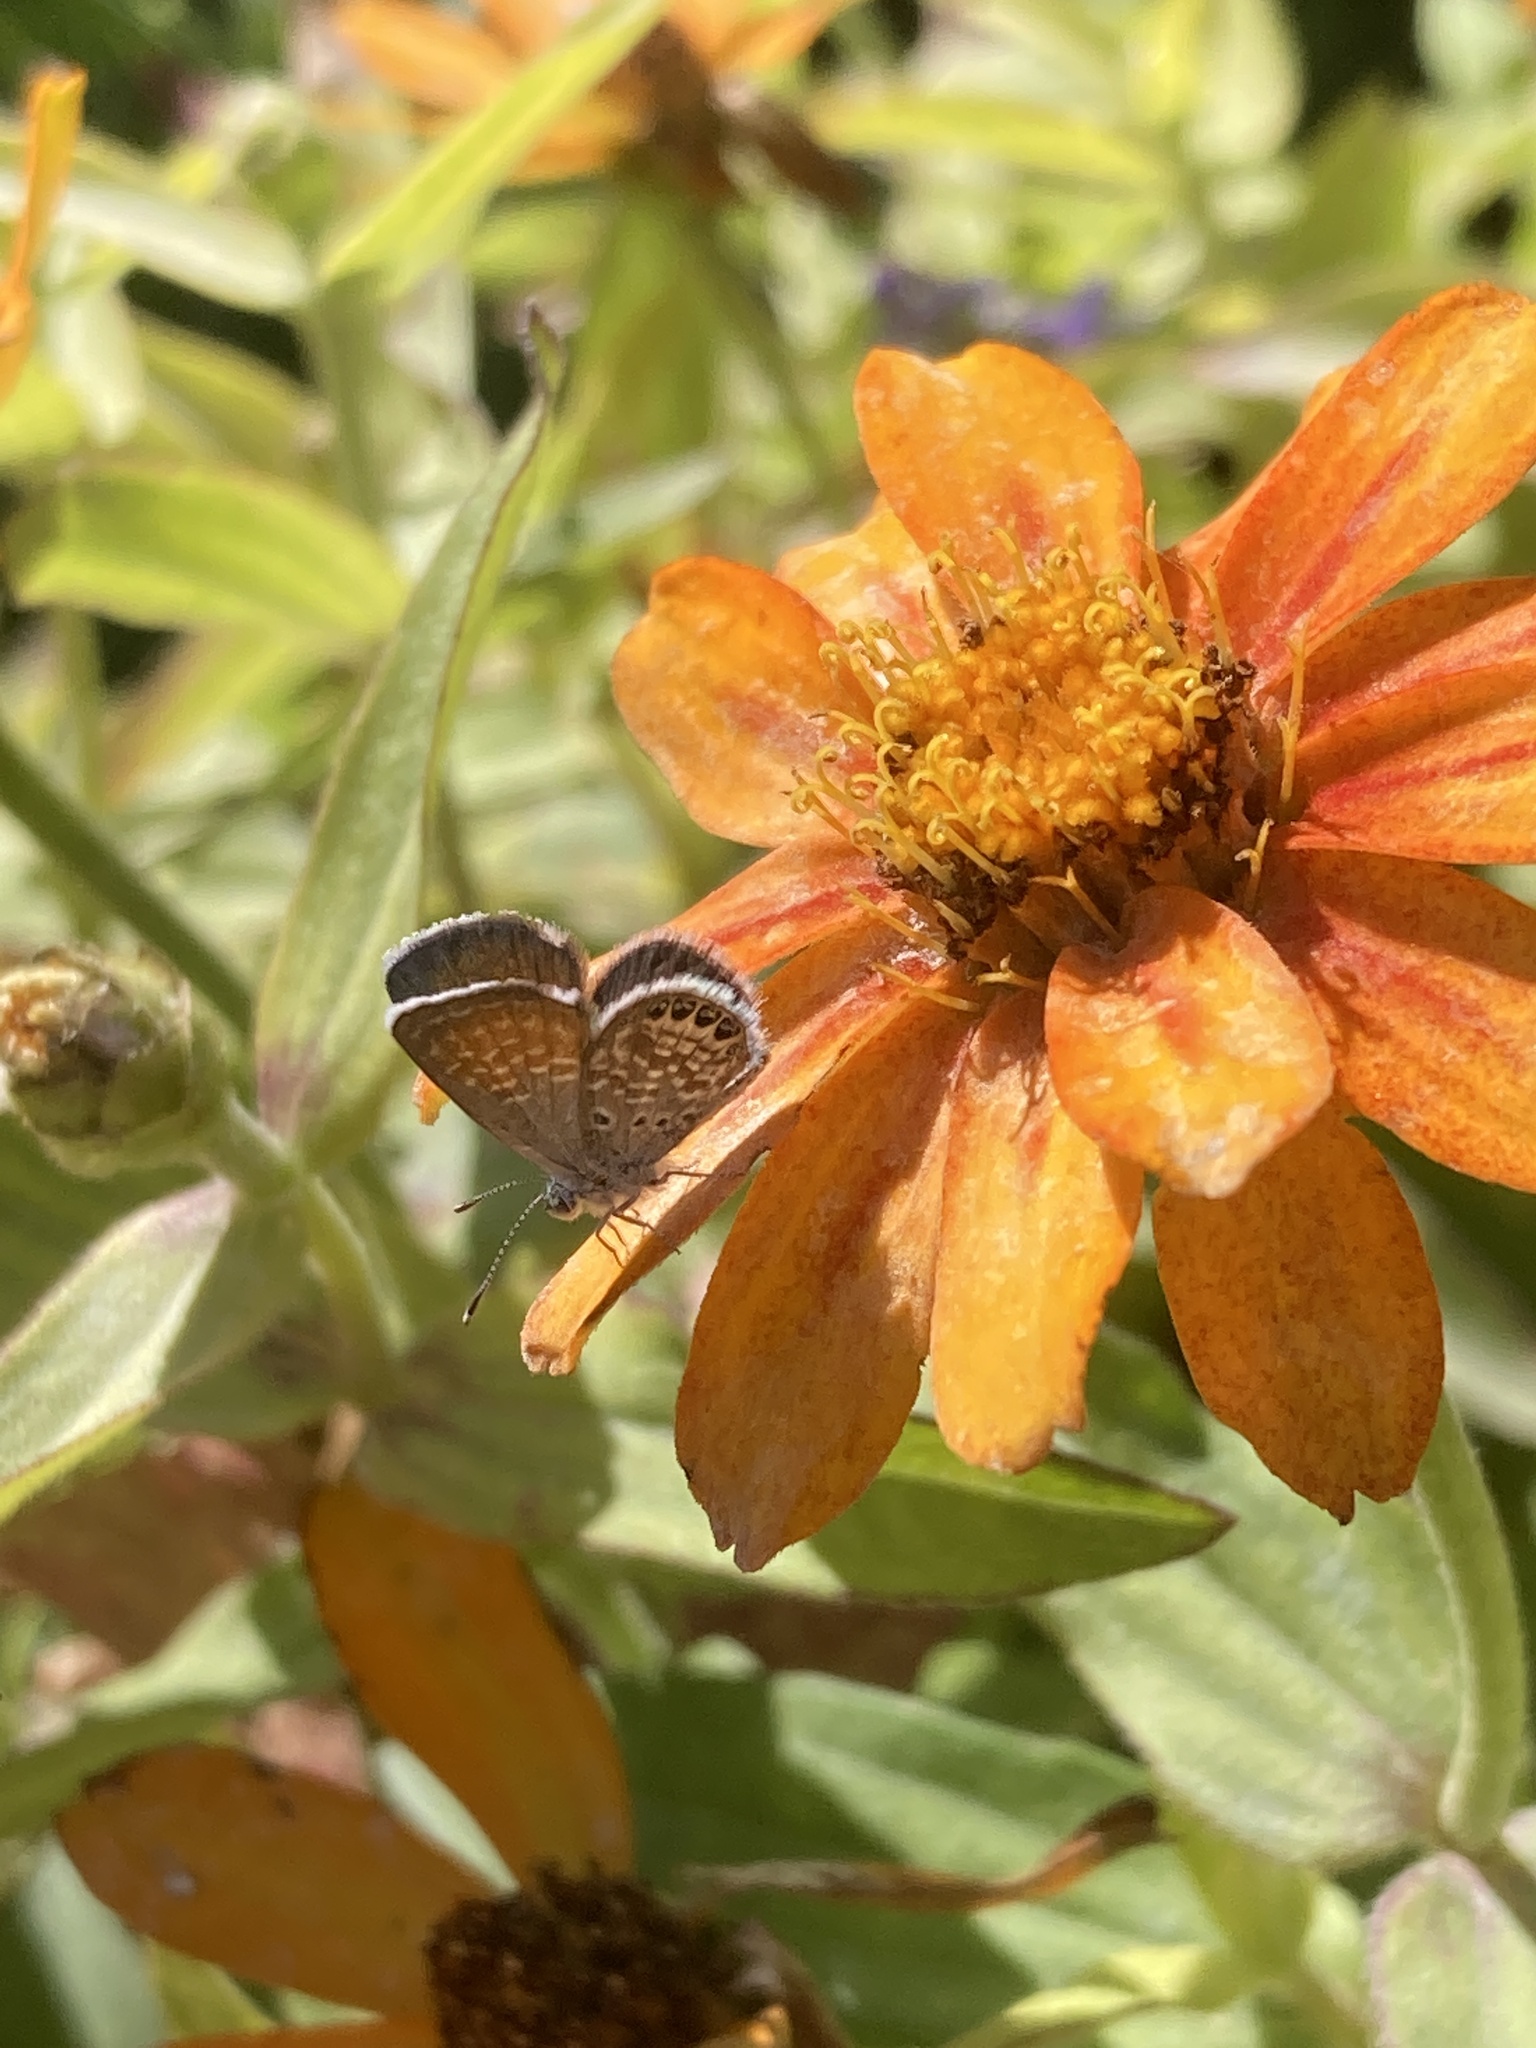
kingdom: Animalia
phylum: Arthropoda
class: Insecta
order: Lepidoptera
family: Lycaenidae
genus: Brephidium
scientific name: Brephidium exilis
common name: Pygmy blue
